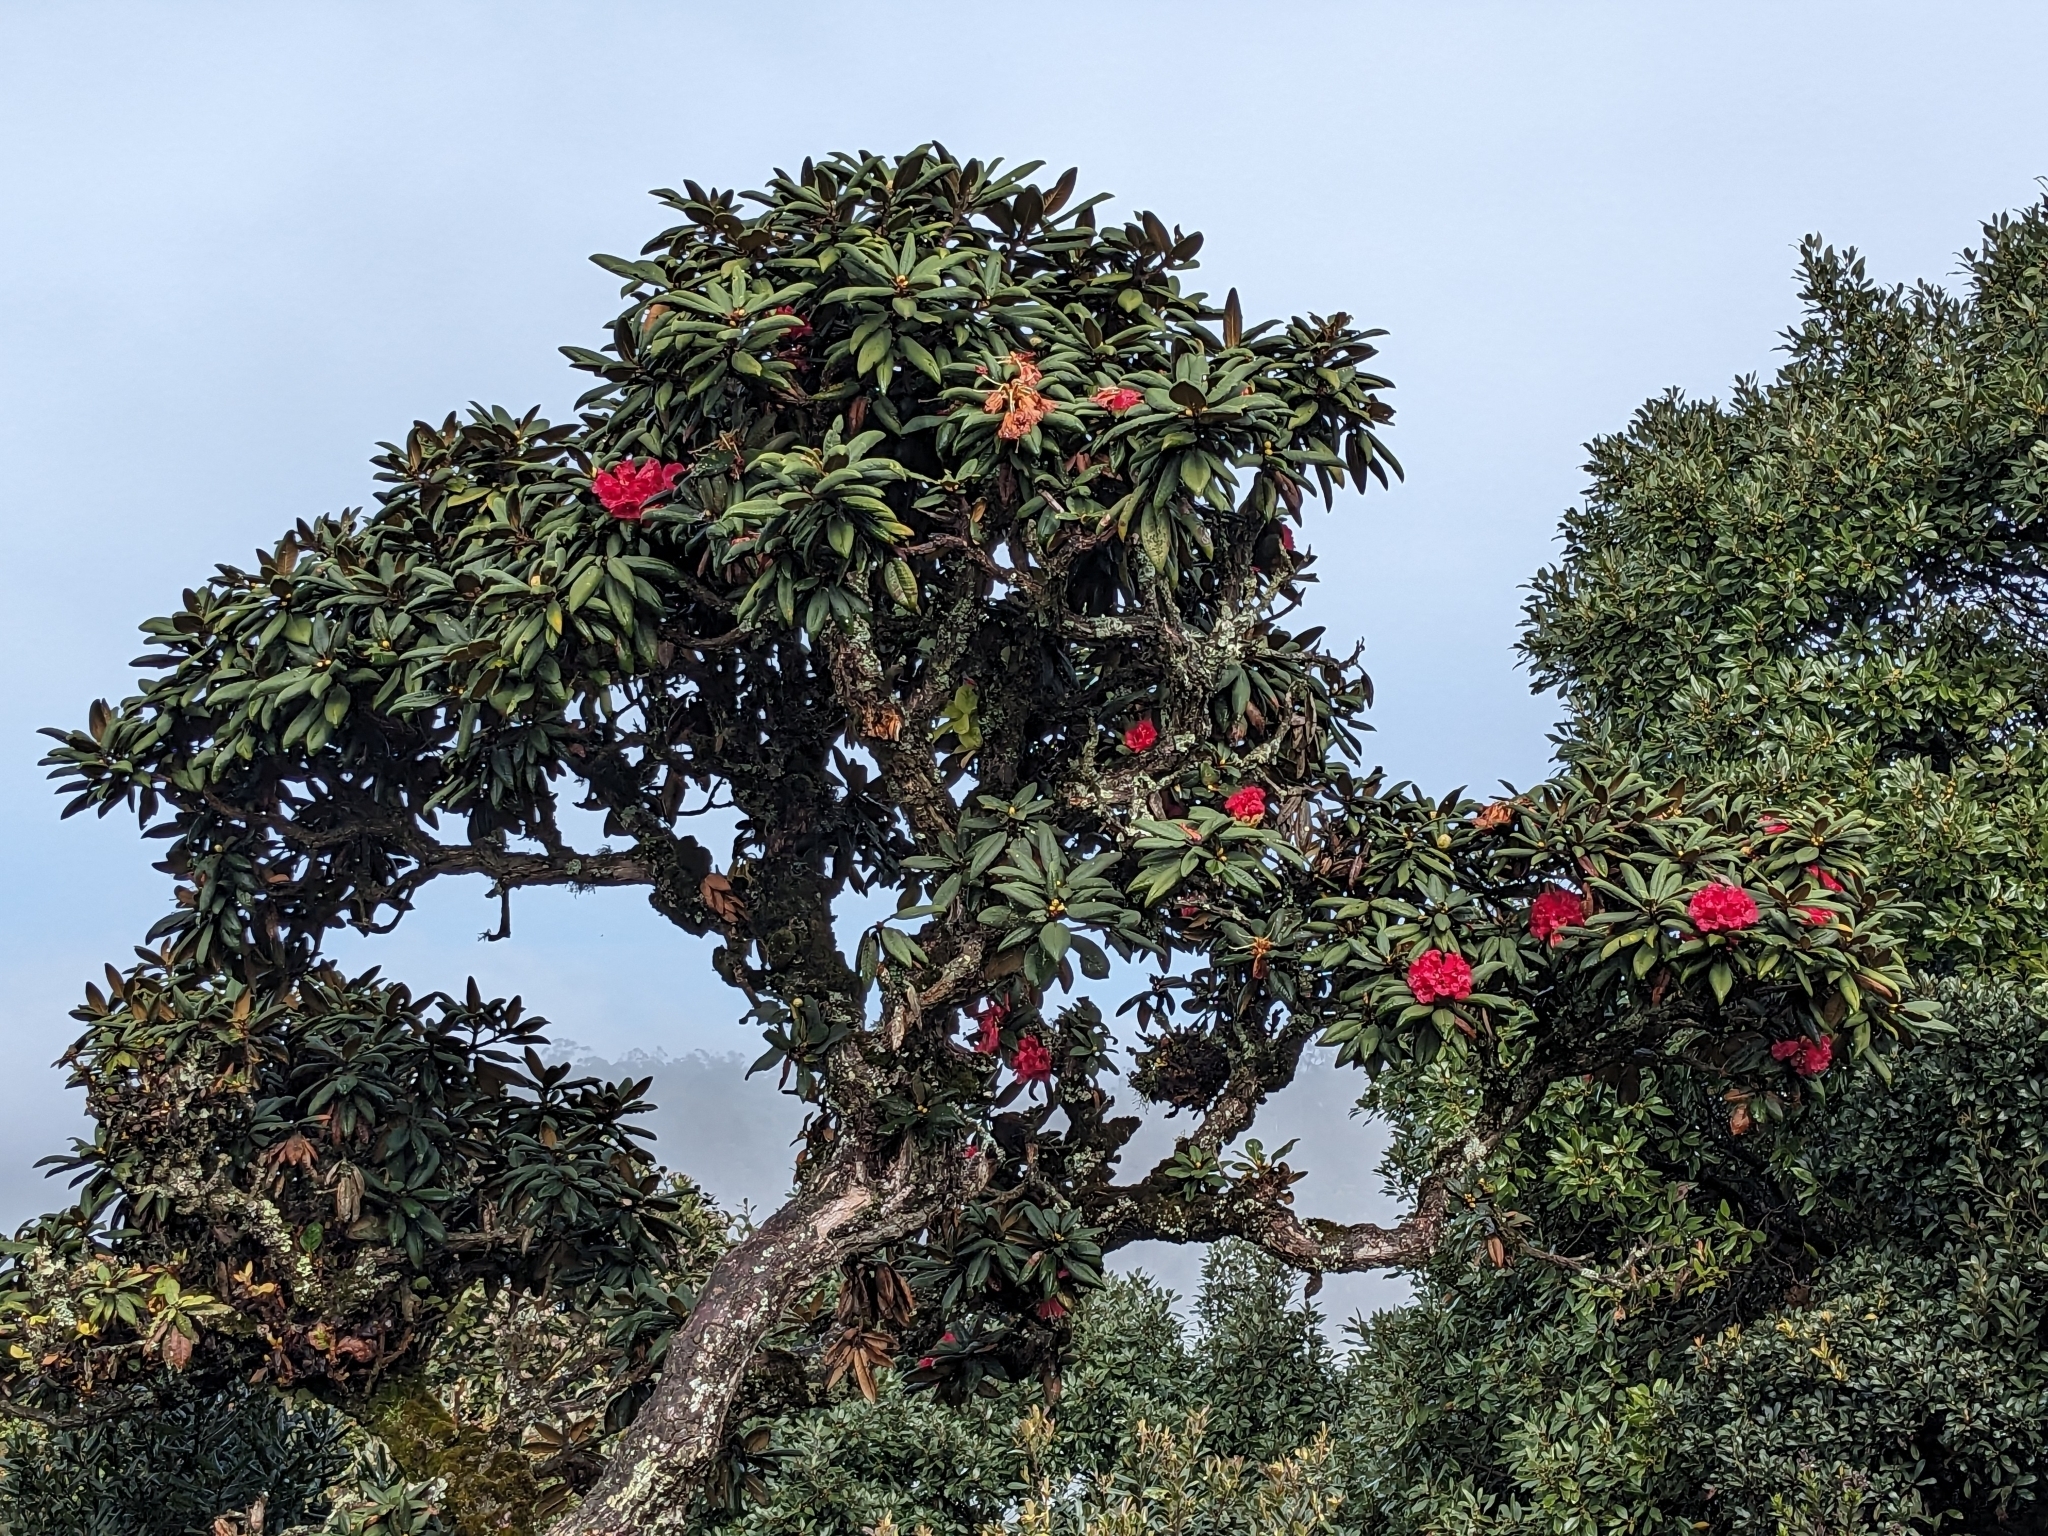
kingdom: Plantae
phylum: Tracheophyta
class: Magnoliopsida
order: Ericales
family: Ericaceae
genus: Rhododendron
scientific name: Rhododendron arboreum
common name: Tree rhododendron
